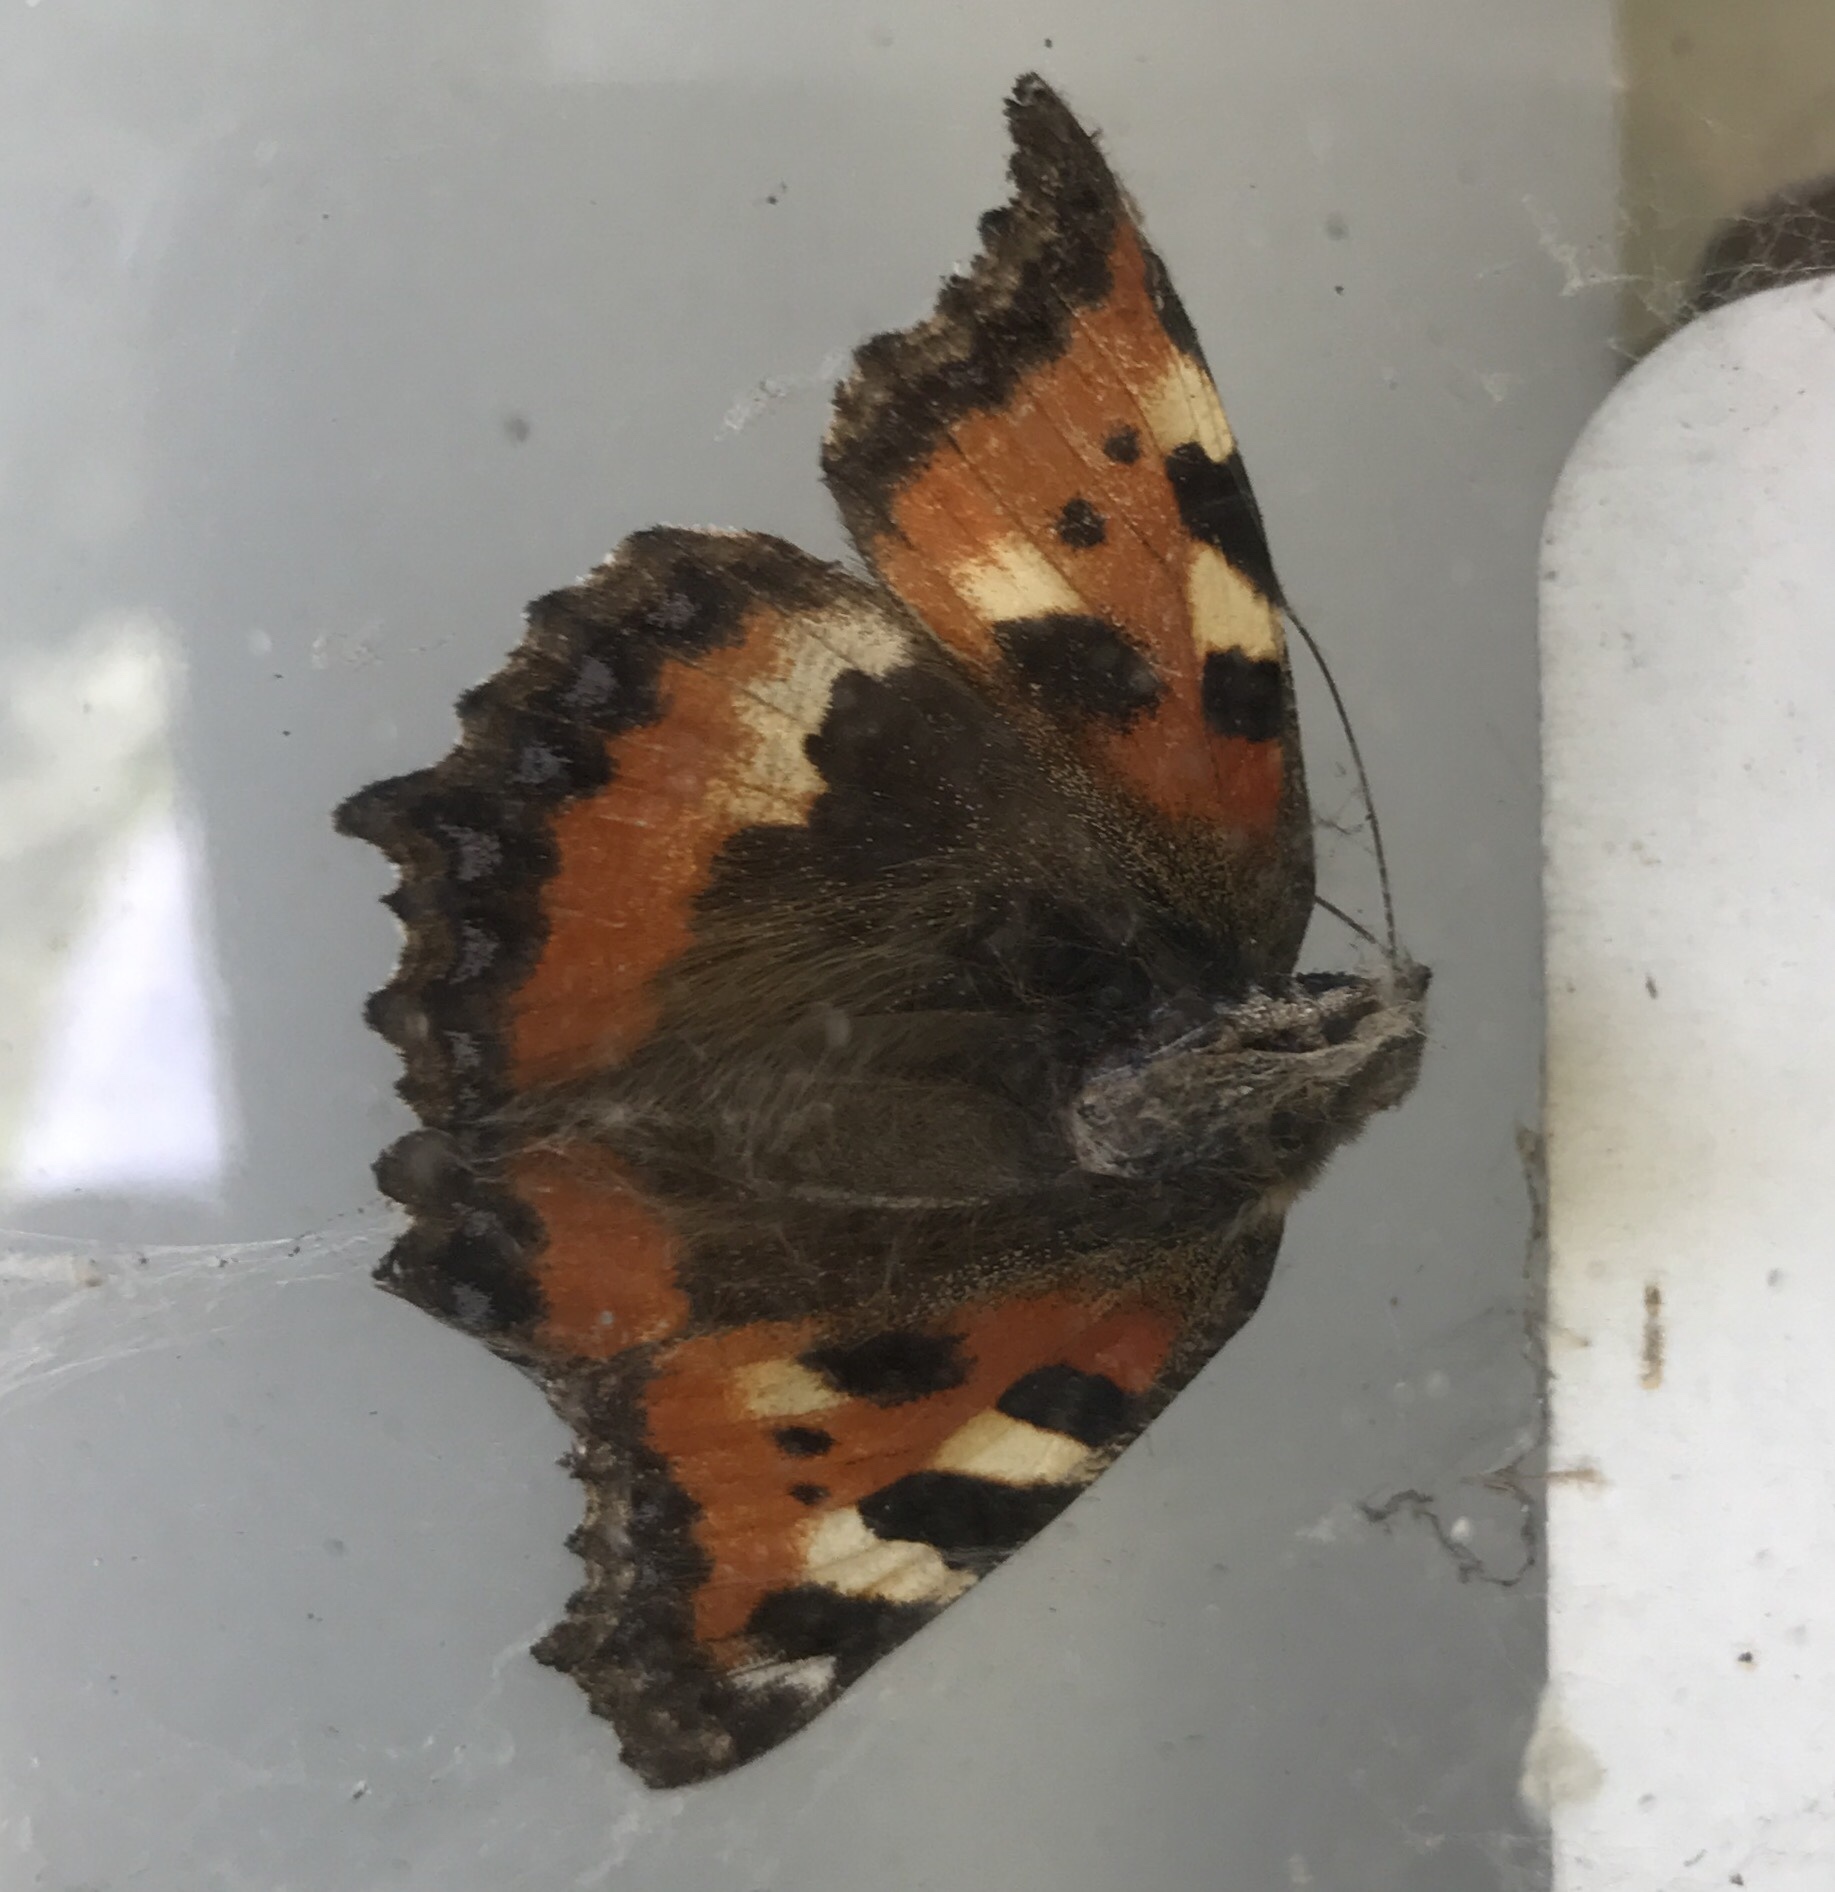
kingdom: Animalia
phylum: Arthropoda
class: Insecta
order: Lepidoptera
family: Nymphalidae
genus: Aglais
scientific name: Aglais urticae
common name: Small tortoiseshell
